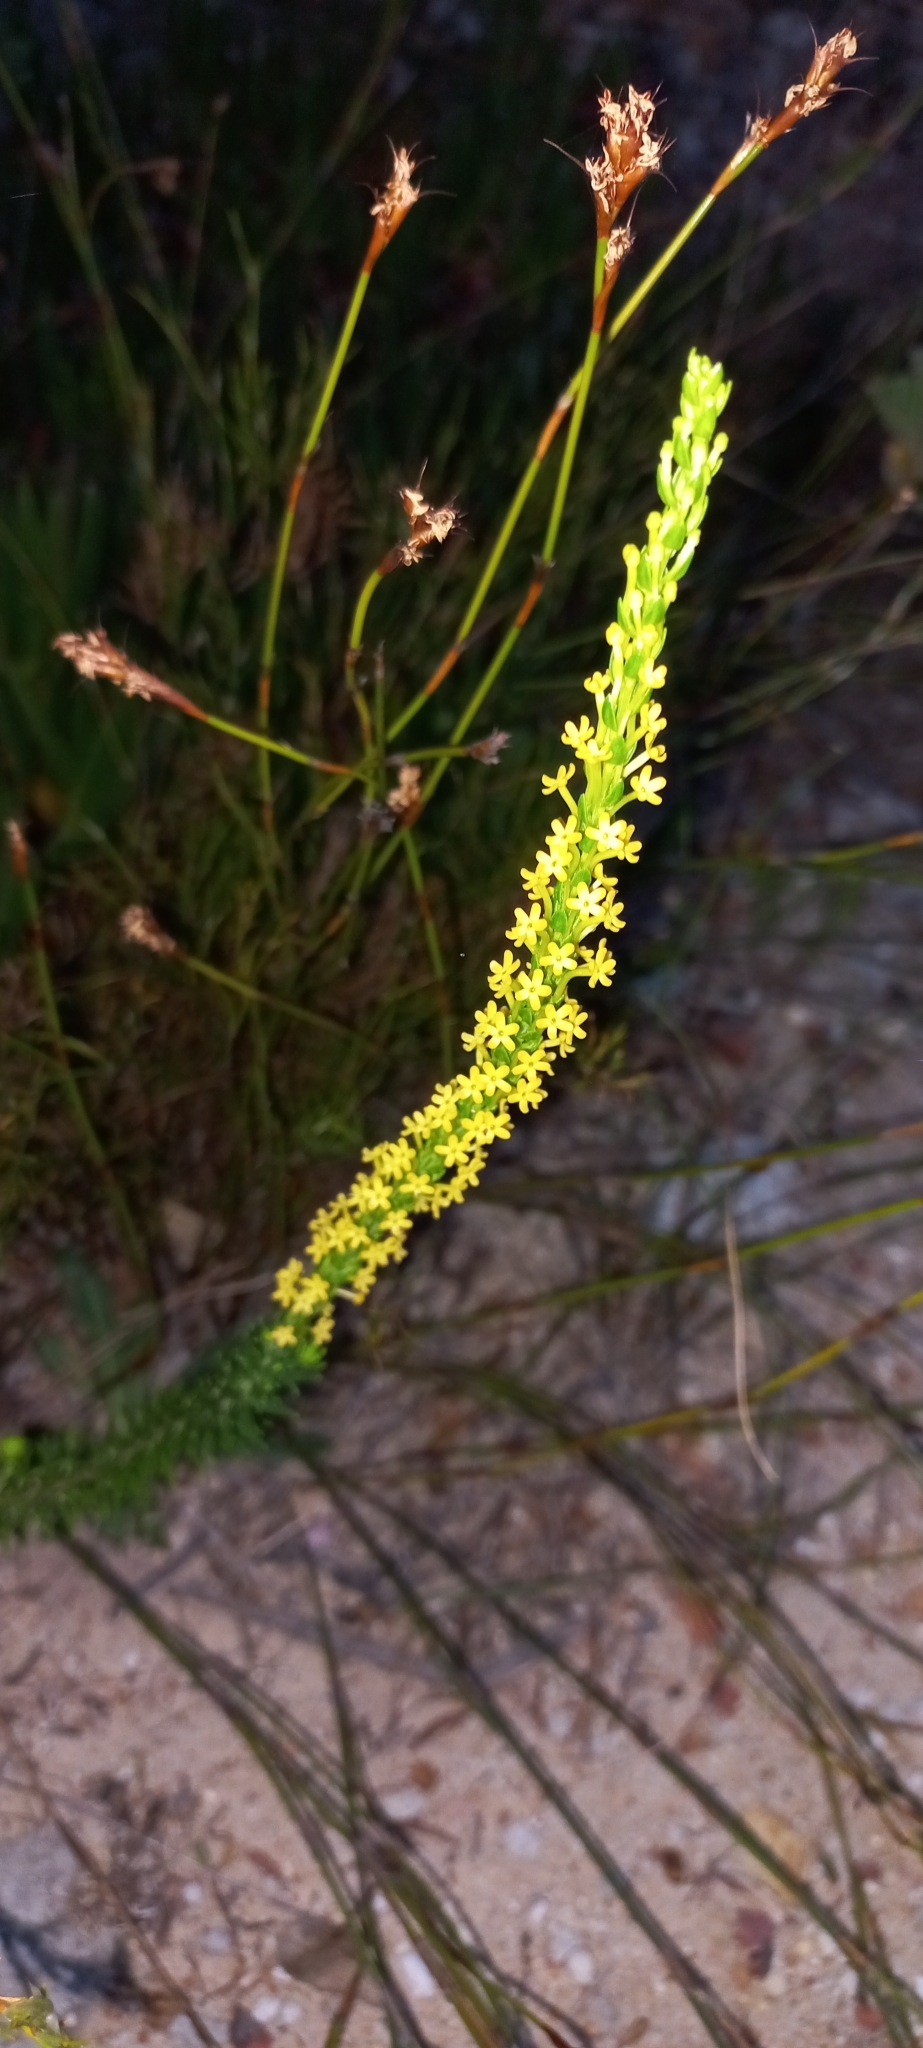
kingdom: Plantae
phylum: Tracheophyta
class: Magnoliopsida
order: Lamiales
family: Scrophulariaceae
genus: Microdon
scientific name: Microdon dubius
